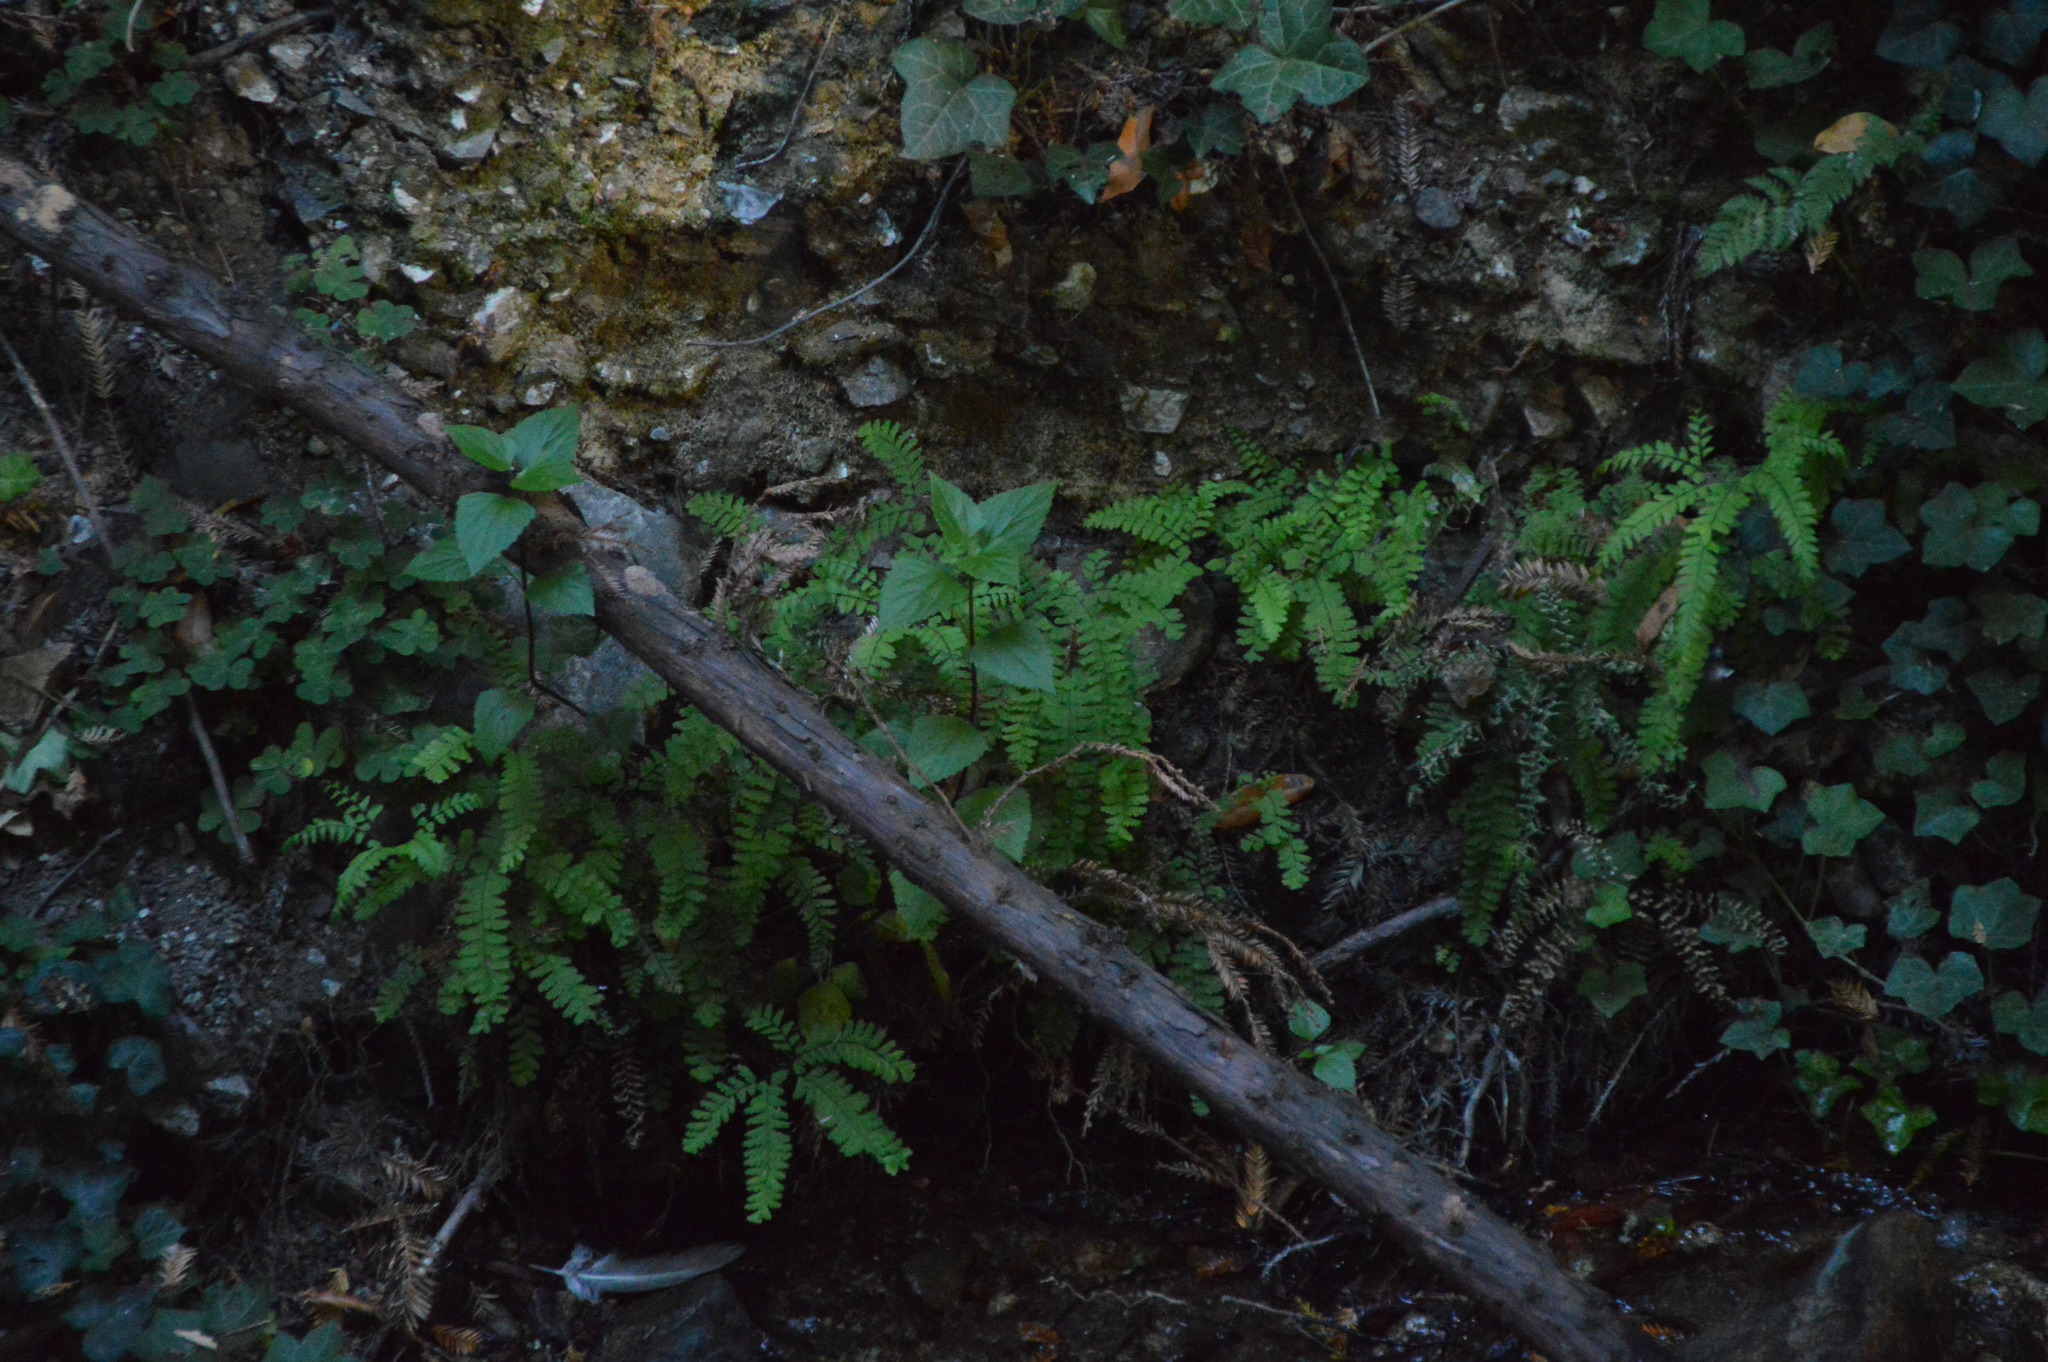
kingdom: Plantae
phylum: Tracheophyta
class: Polypodiopsida
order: Polypodiales
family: Pteridaceae
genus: Adiantum
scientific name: Adiantum aleuticum
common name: Aleutian maidenhair fern
